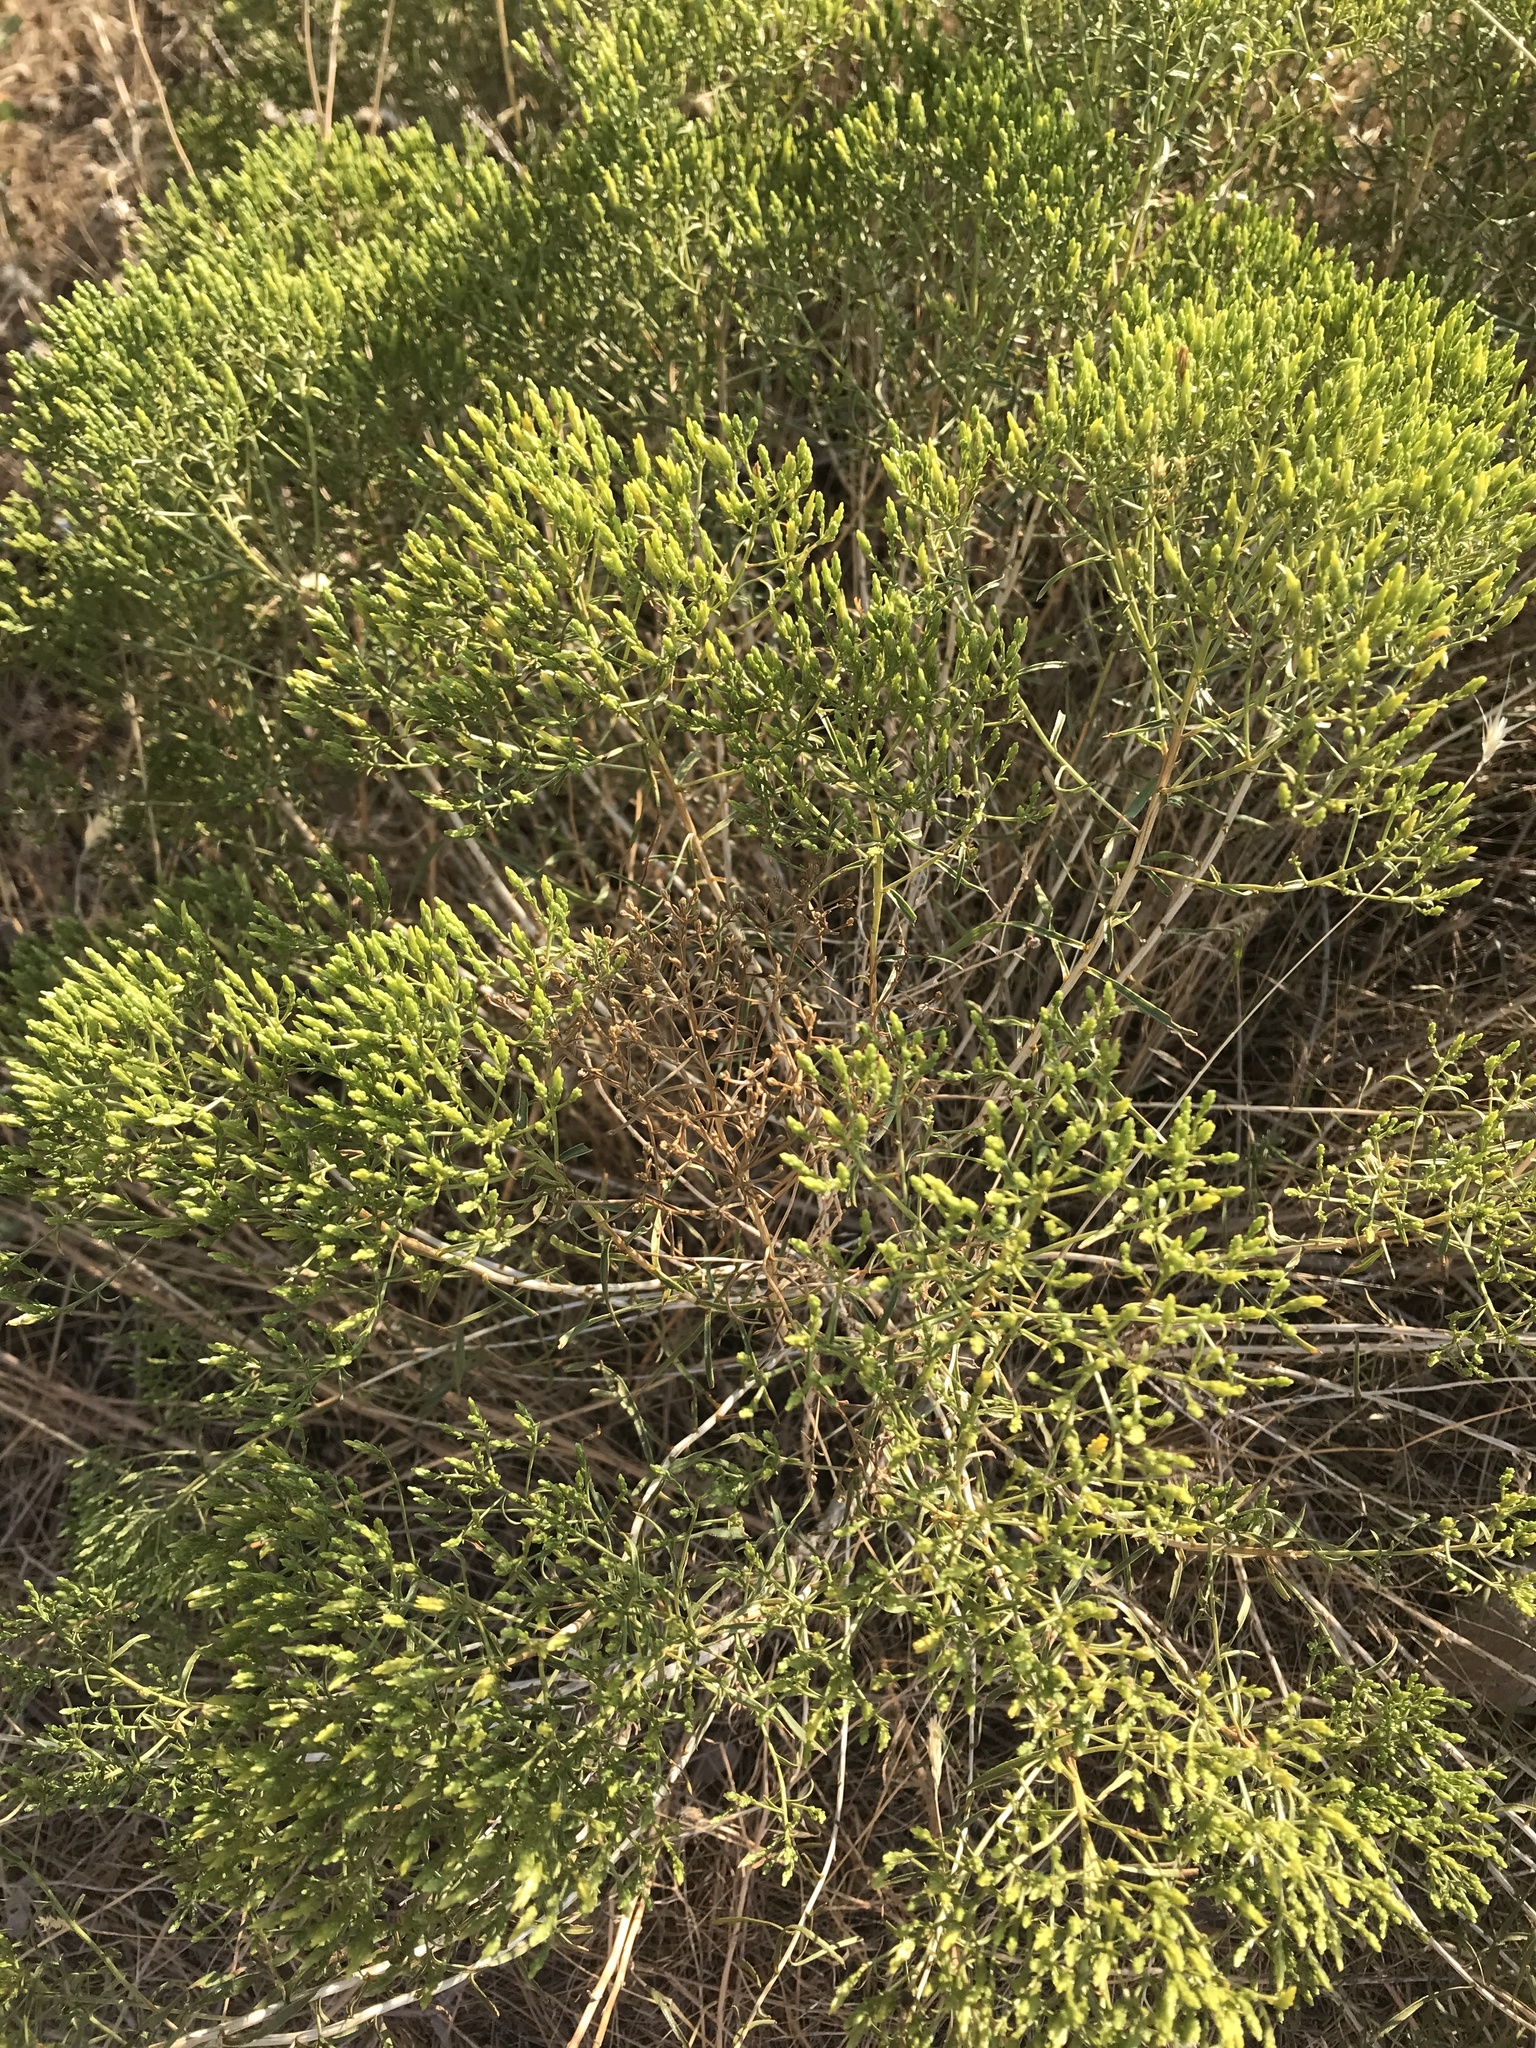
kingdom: Plantae
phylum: Tracheophyta
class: Magnoliopsida
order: Asterales
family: Asteraceae
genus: Chrysothamnus
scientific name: Chrysothamnus viscidiflorus
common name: Yellow rabbitbrush
